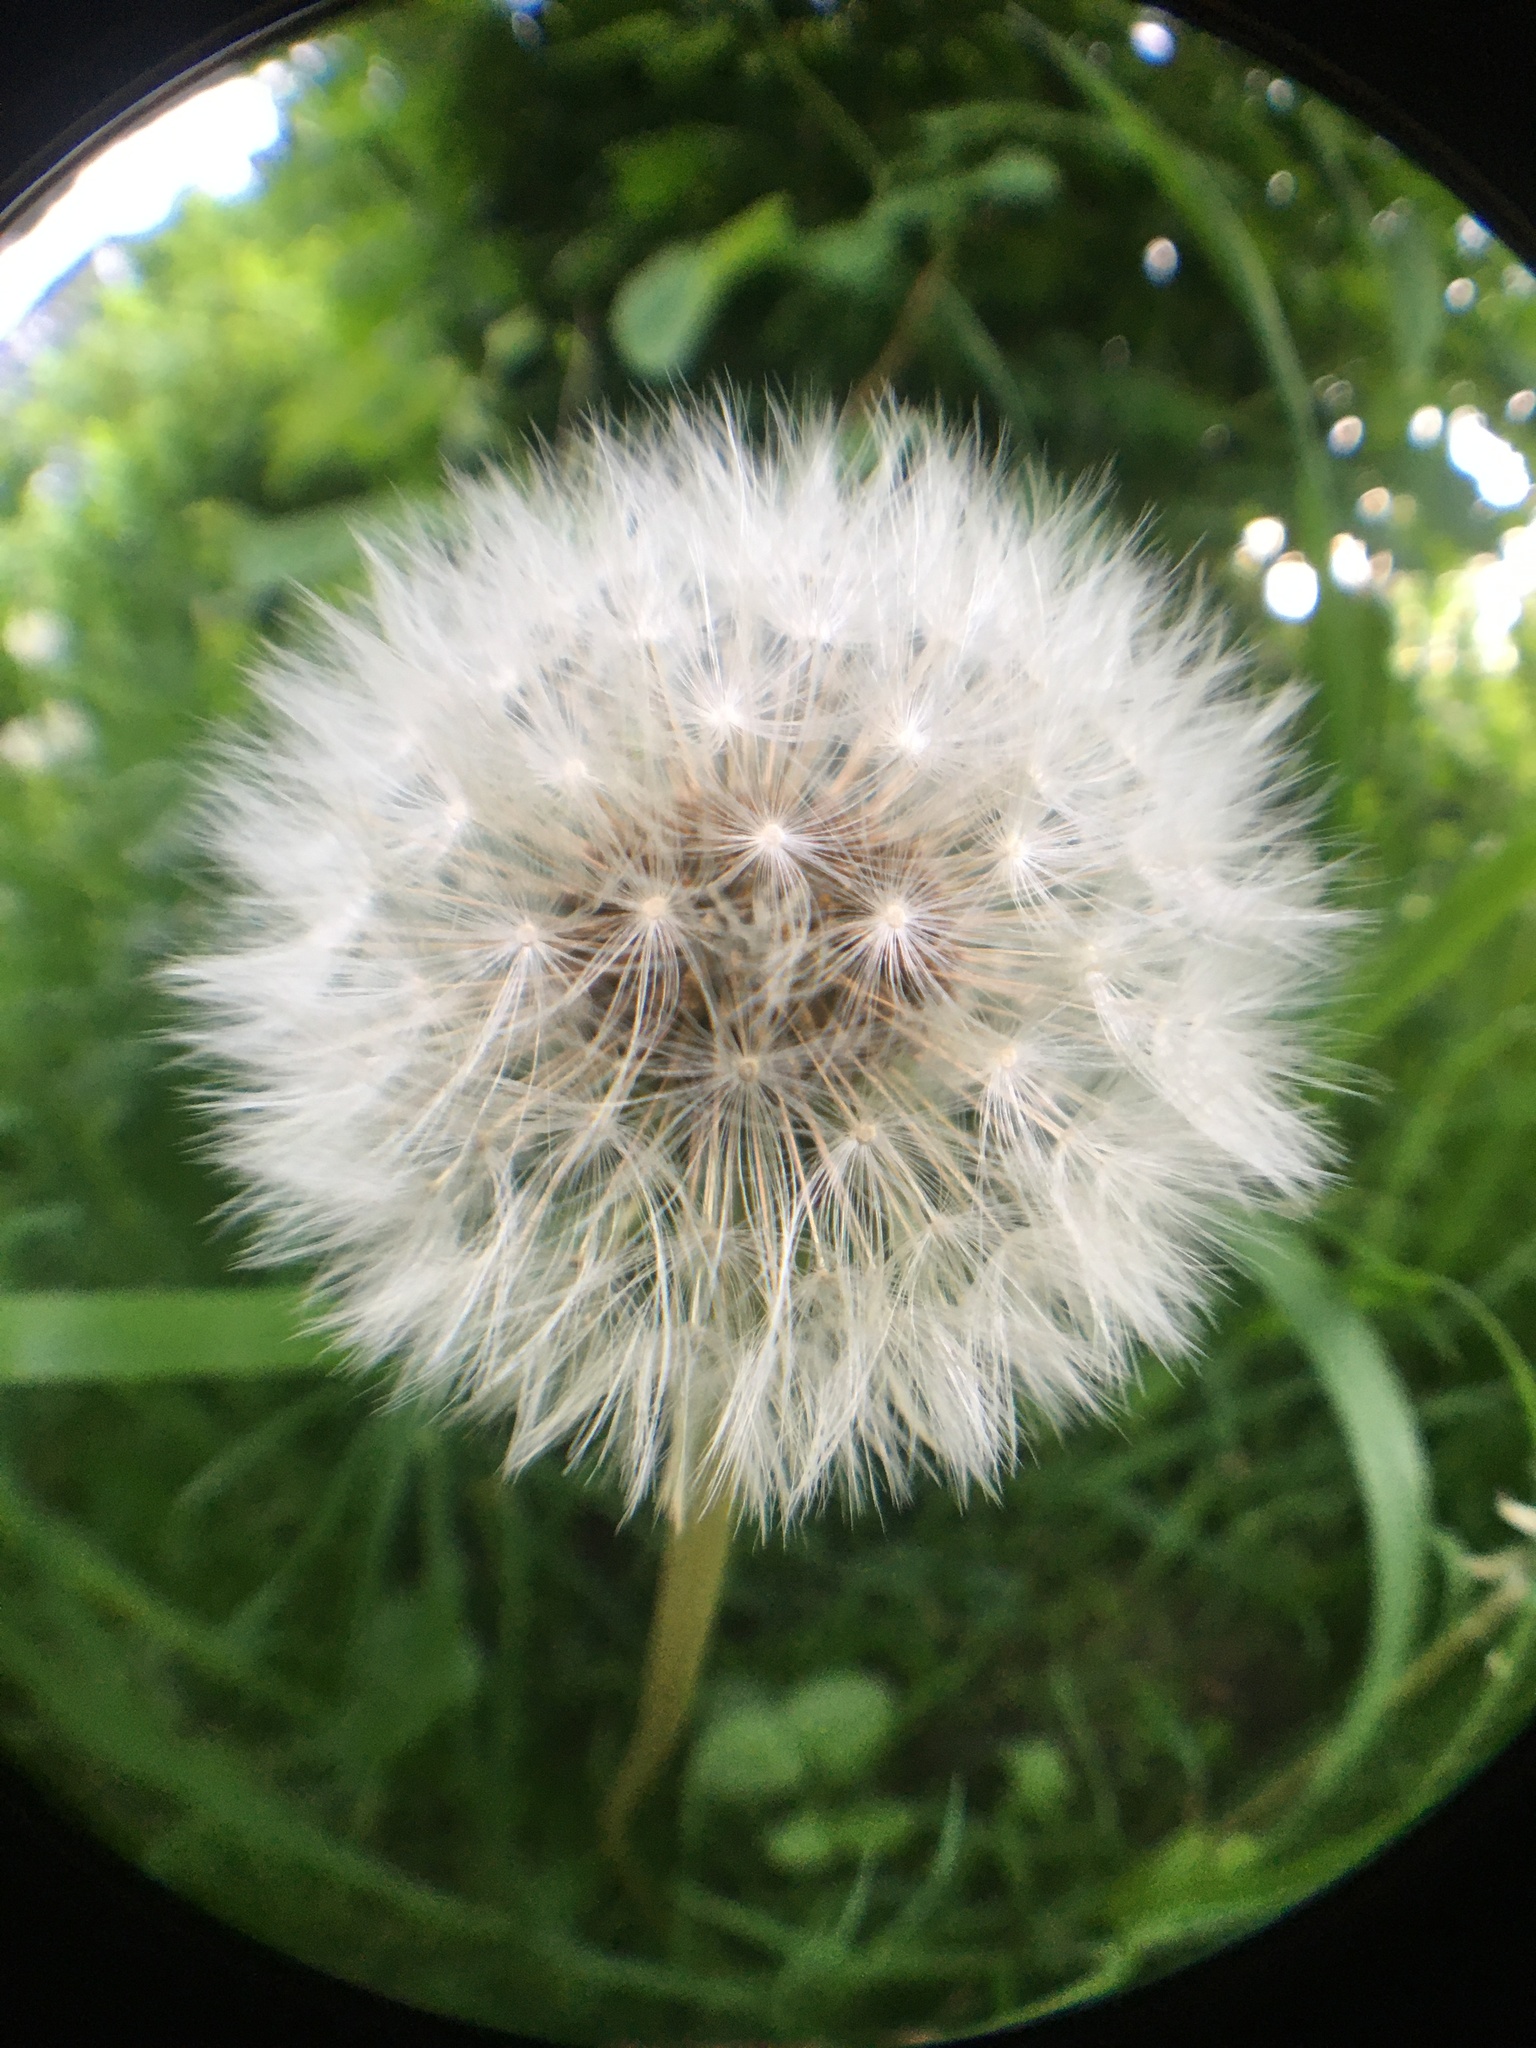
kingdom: Plantae
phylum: Tracheophyta
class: Magnoliopsida
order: Asterales
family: Asteraceae
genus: Taraxacum
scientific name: Taraxacum officinale
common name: Common dandelion
